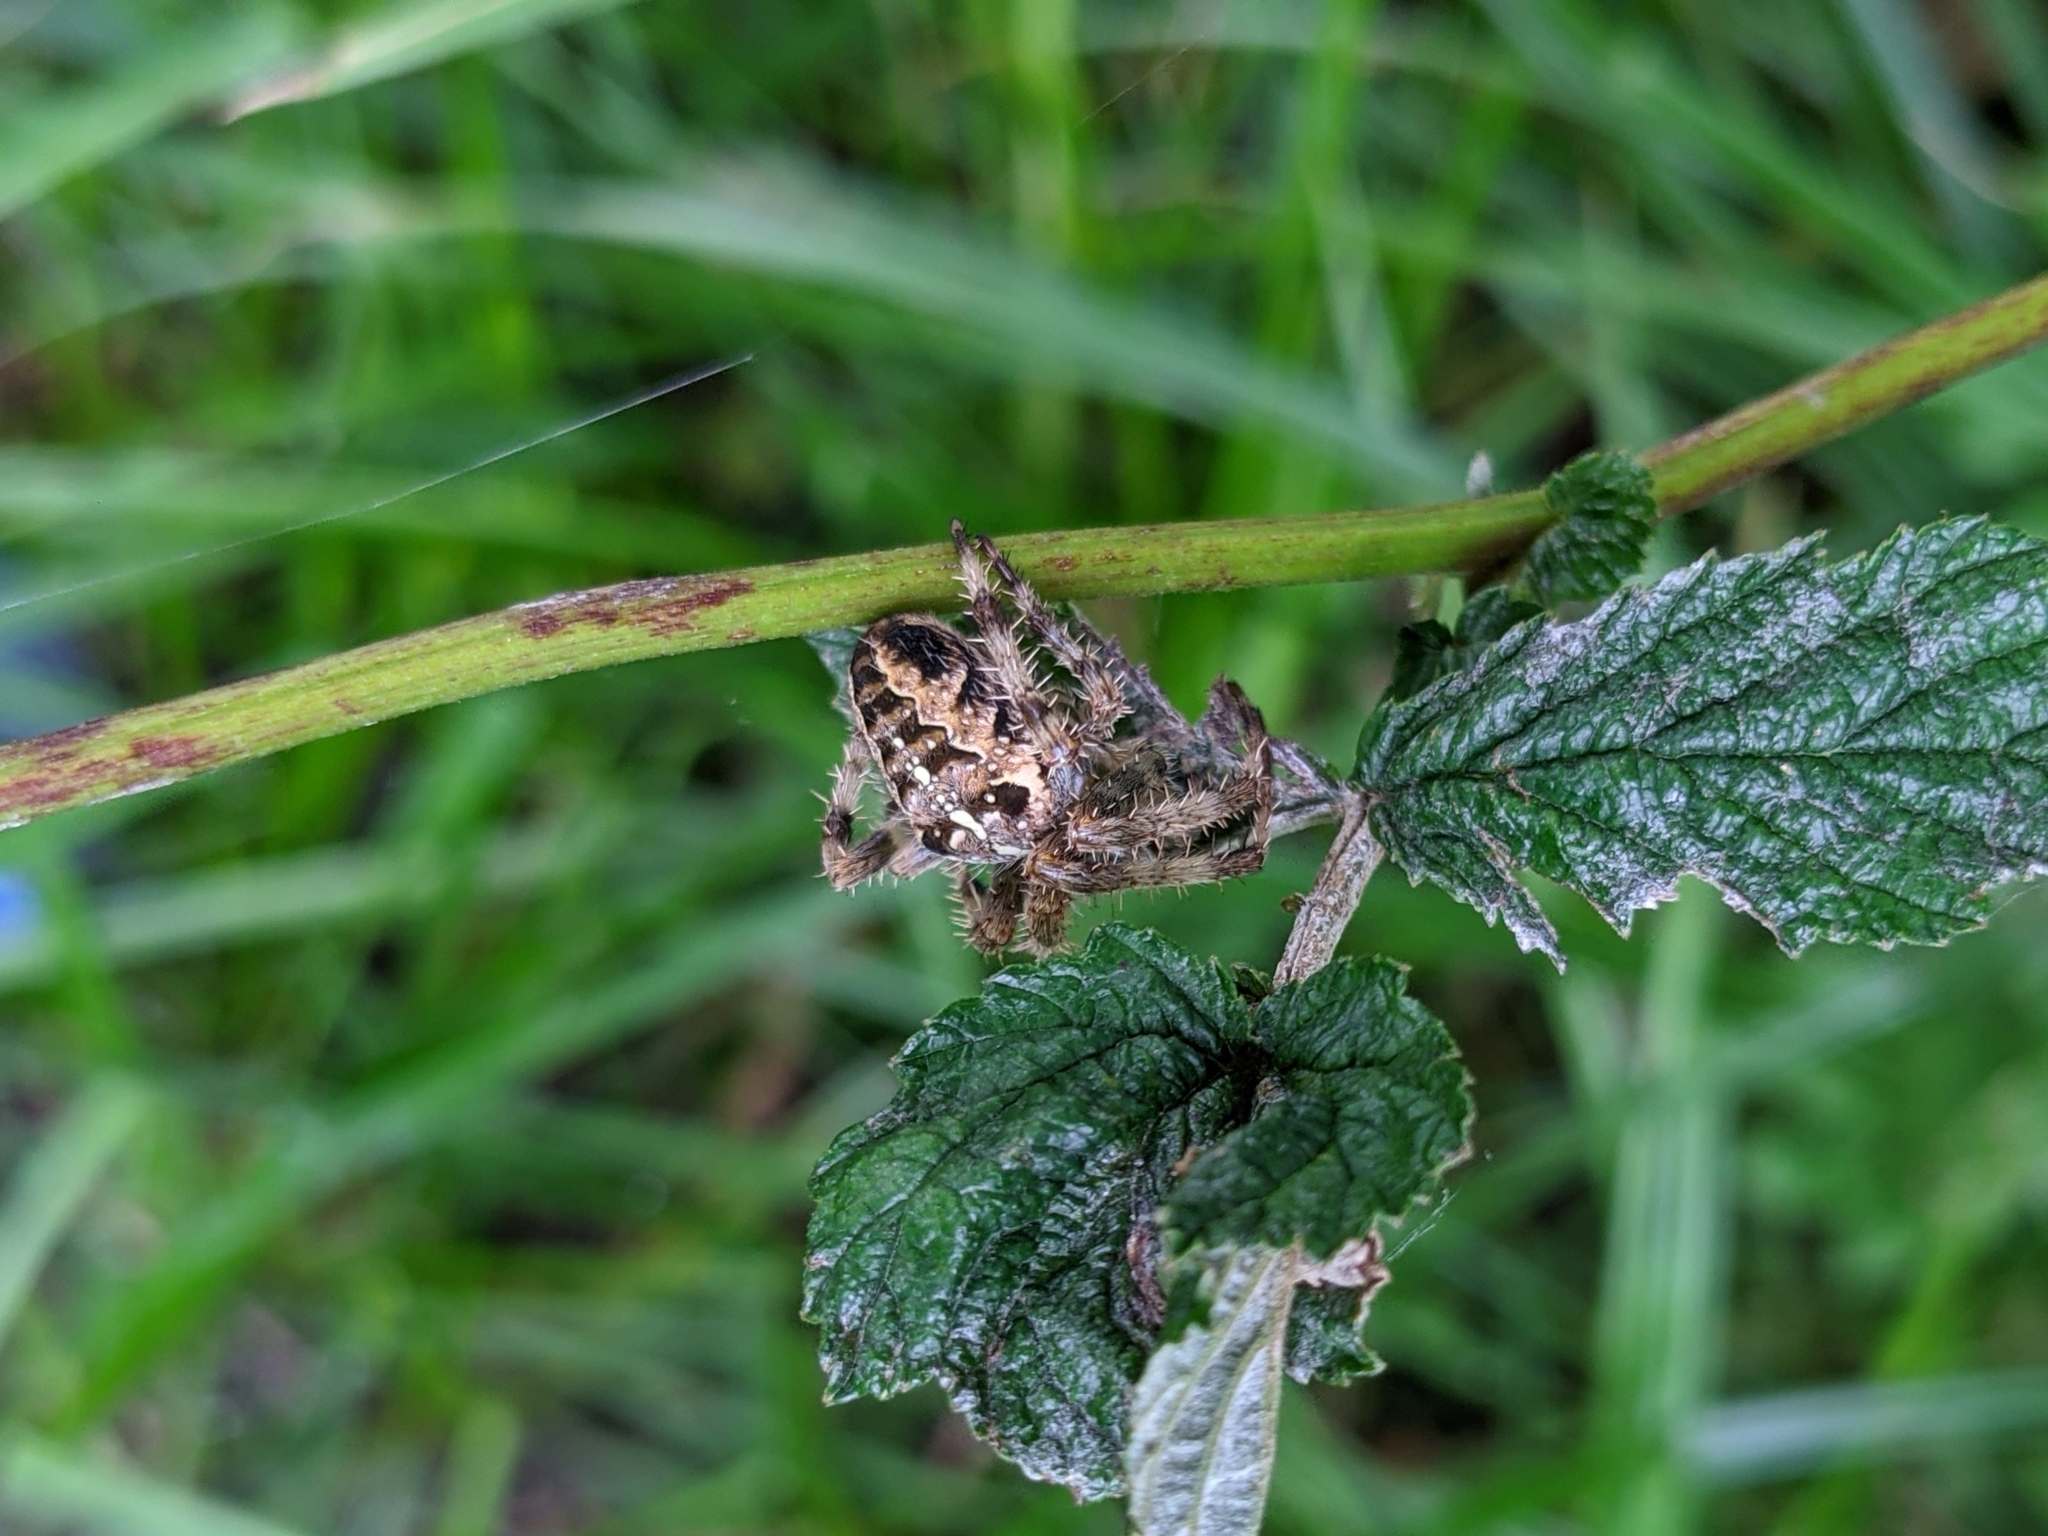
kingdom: Animalia
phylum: Arthropoda
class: Arachnida
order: Araneae
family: Araneidae
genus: Araneus
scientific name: Araneus diadematus
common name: Cross orbweaver
